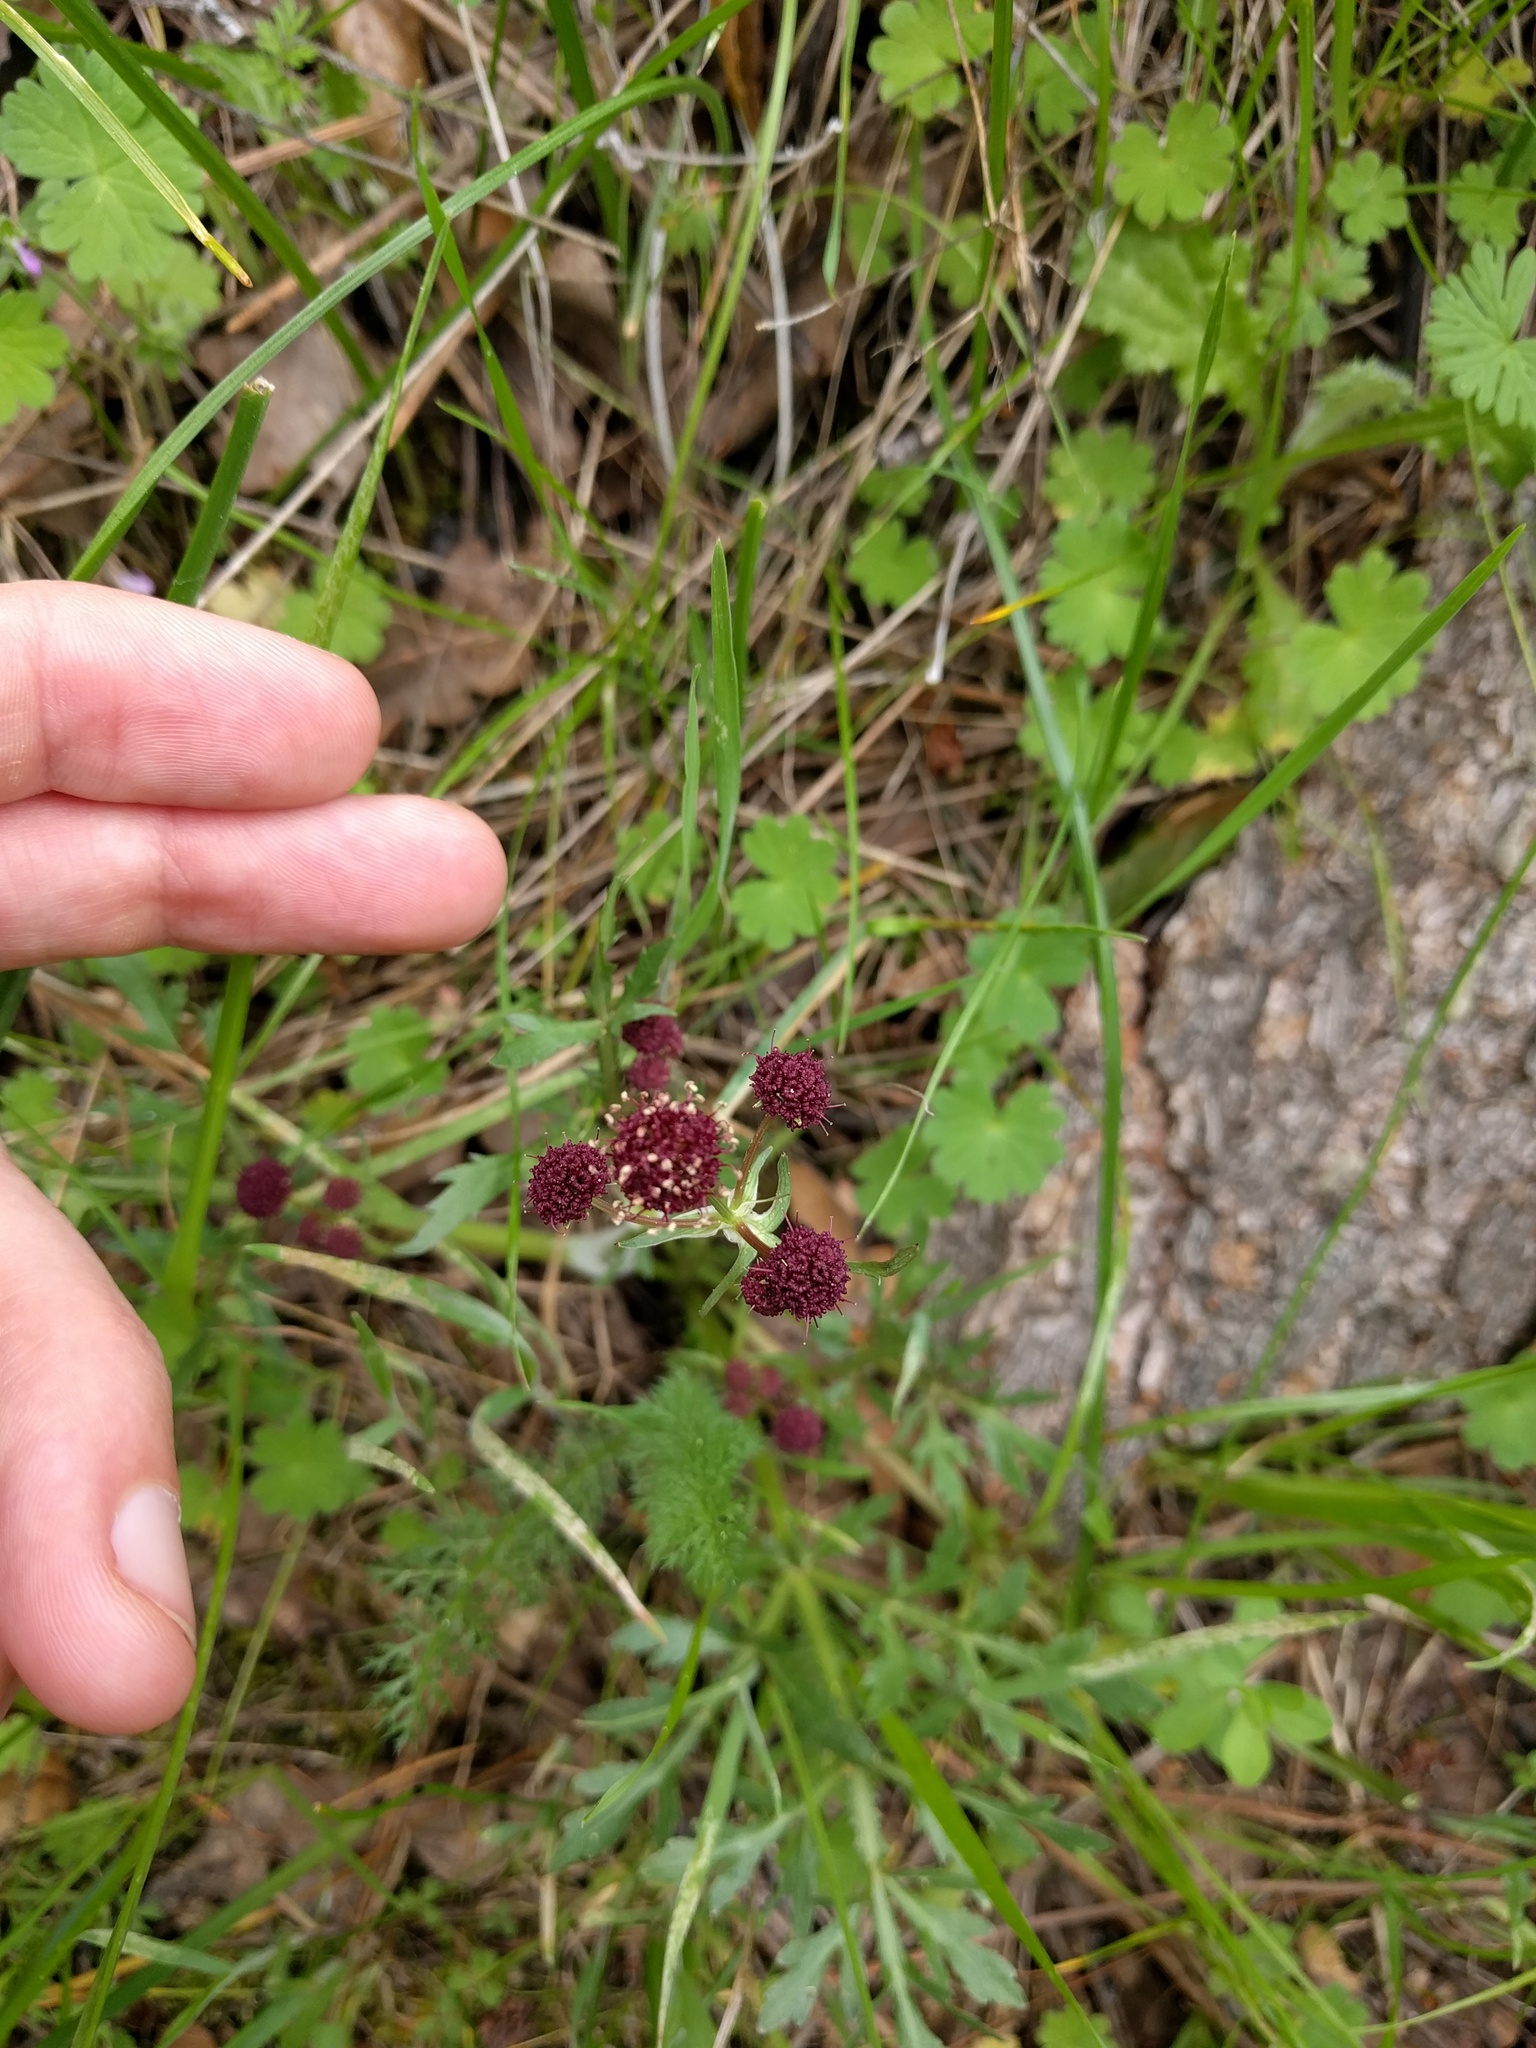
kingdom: Plantae
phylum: Tracheophyta
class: Magnoliopsida
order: Apiales
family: Apiaceae
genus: Sanicula
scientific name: Sanicula bipinnatifida
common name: Shoe-buttons
